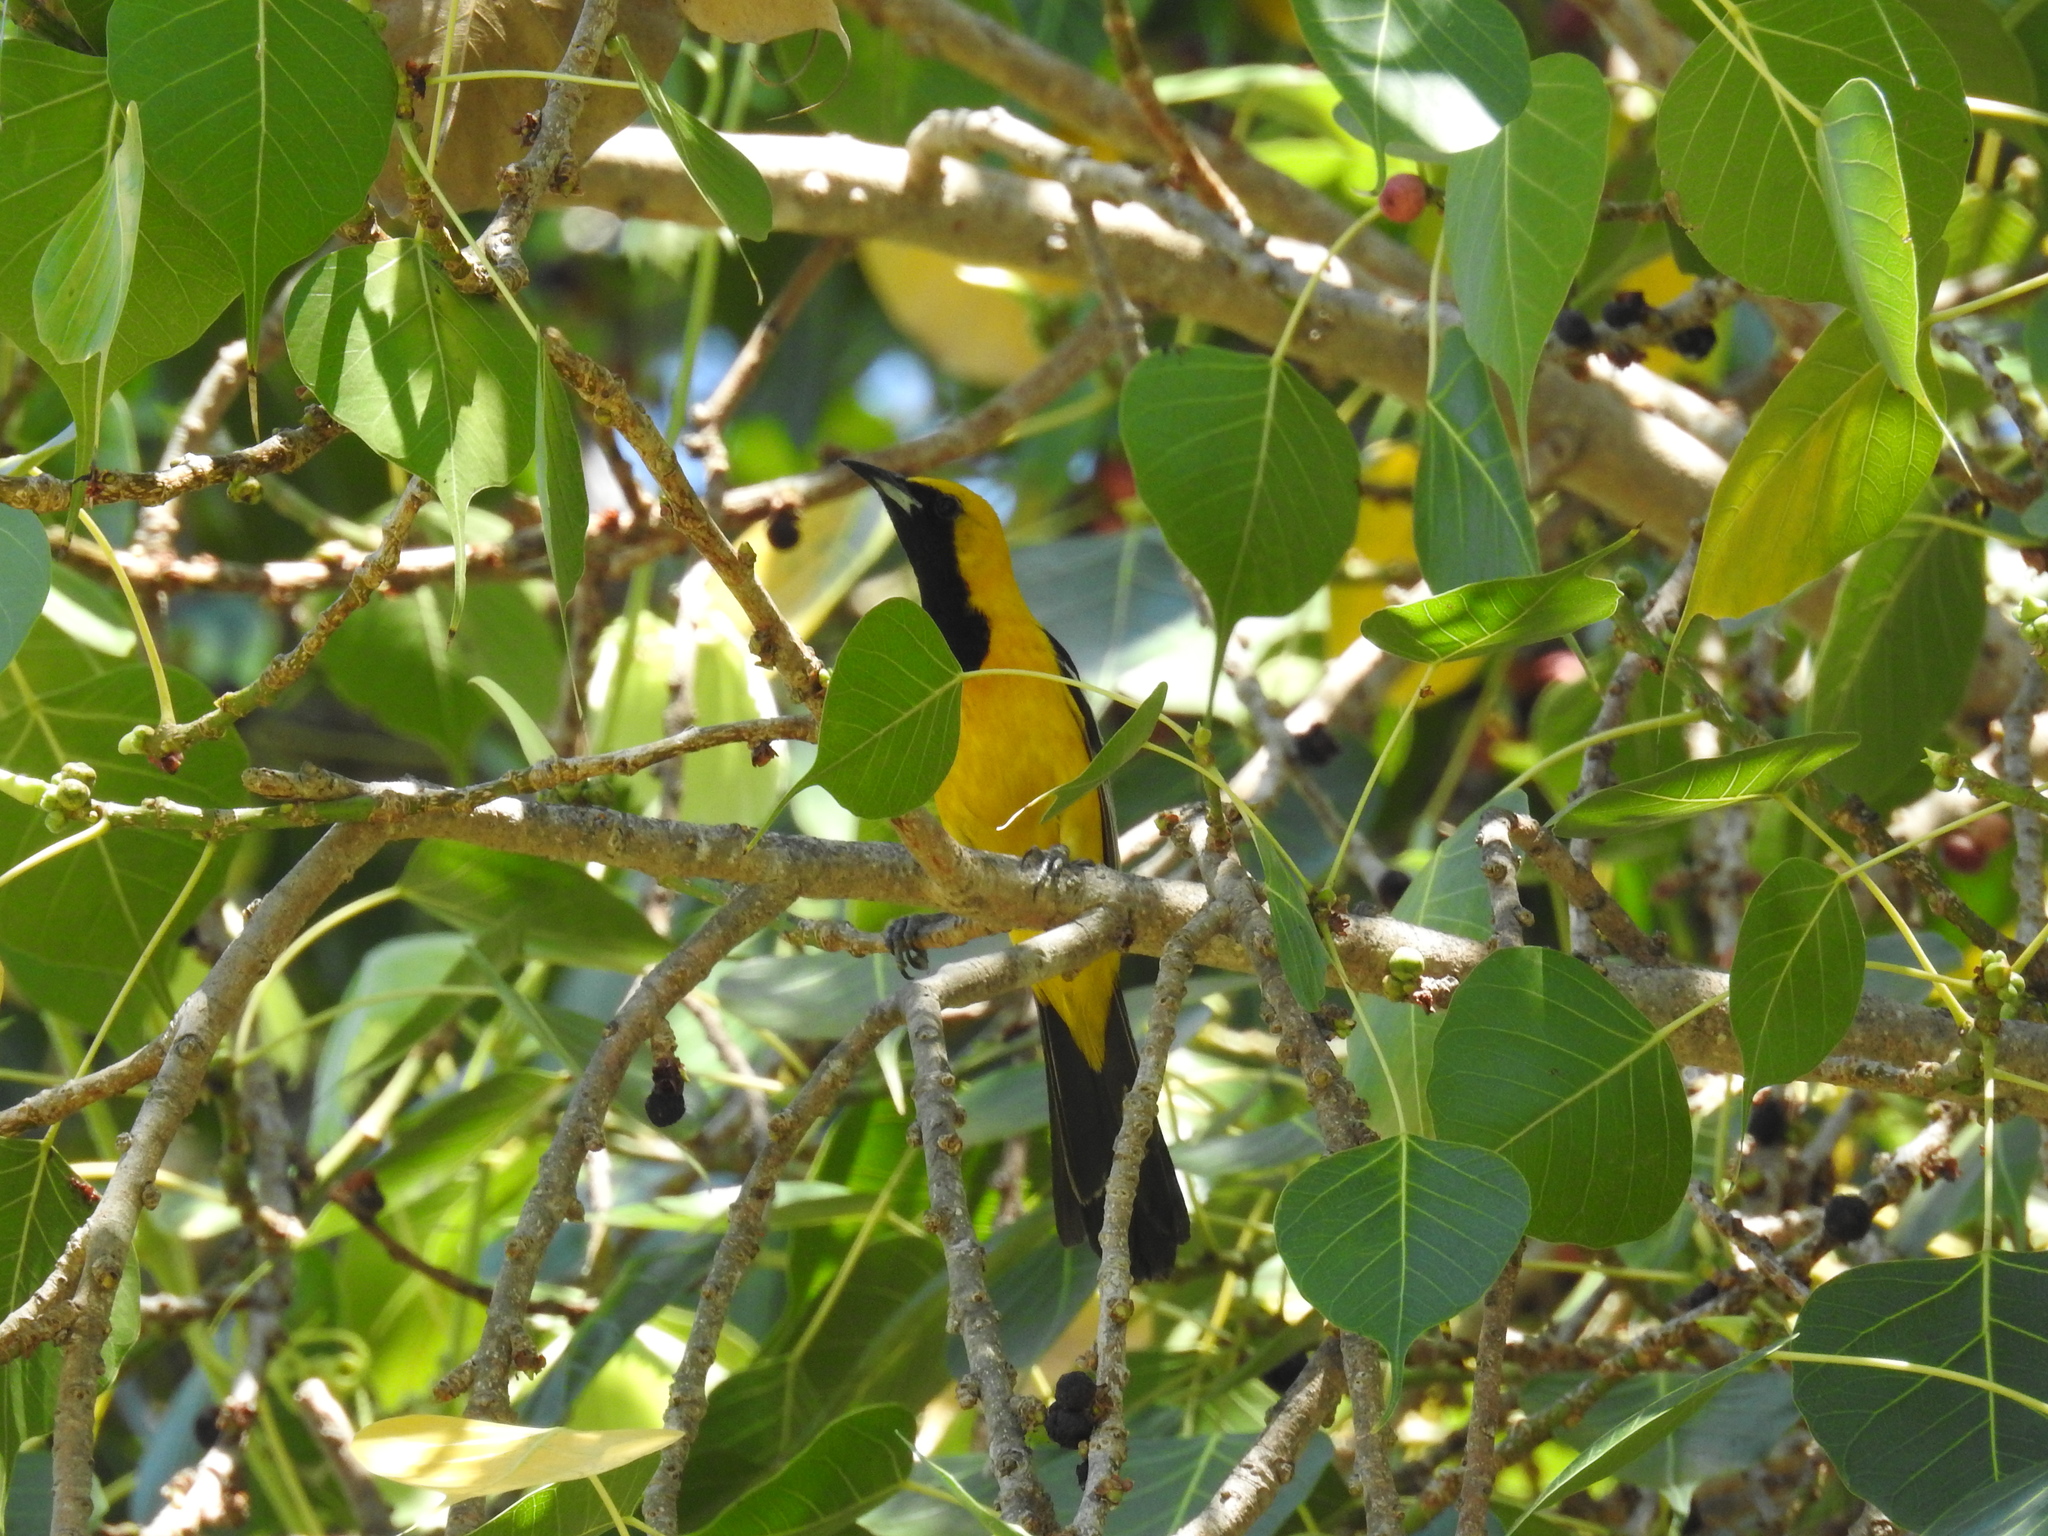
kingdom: Animalia
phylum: Chordata
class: Aves
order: Passeriformes
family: Icteridae
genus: Icterus
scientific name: Icterus cucullatus
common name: Hooded oriole
